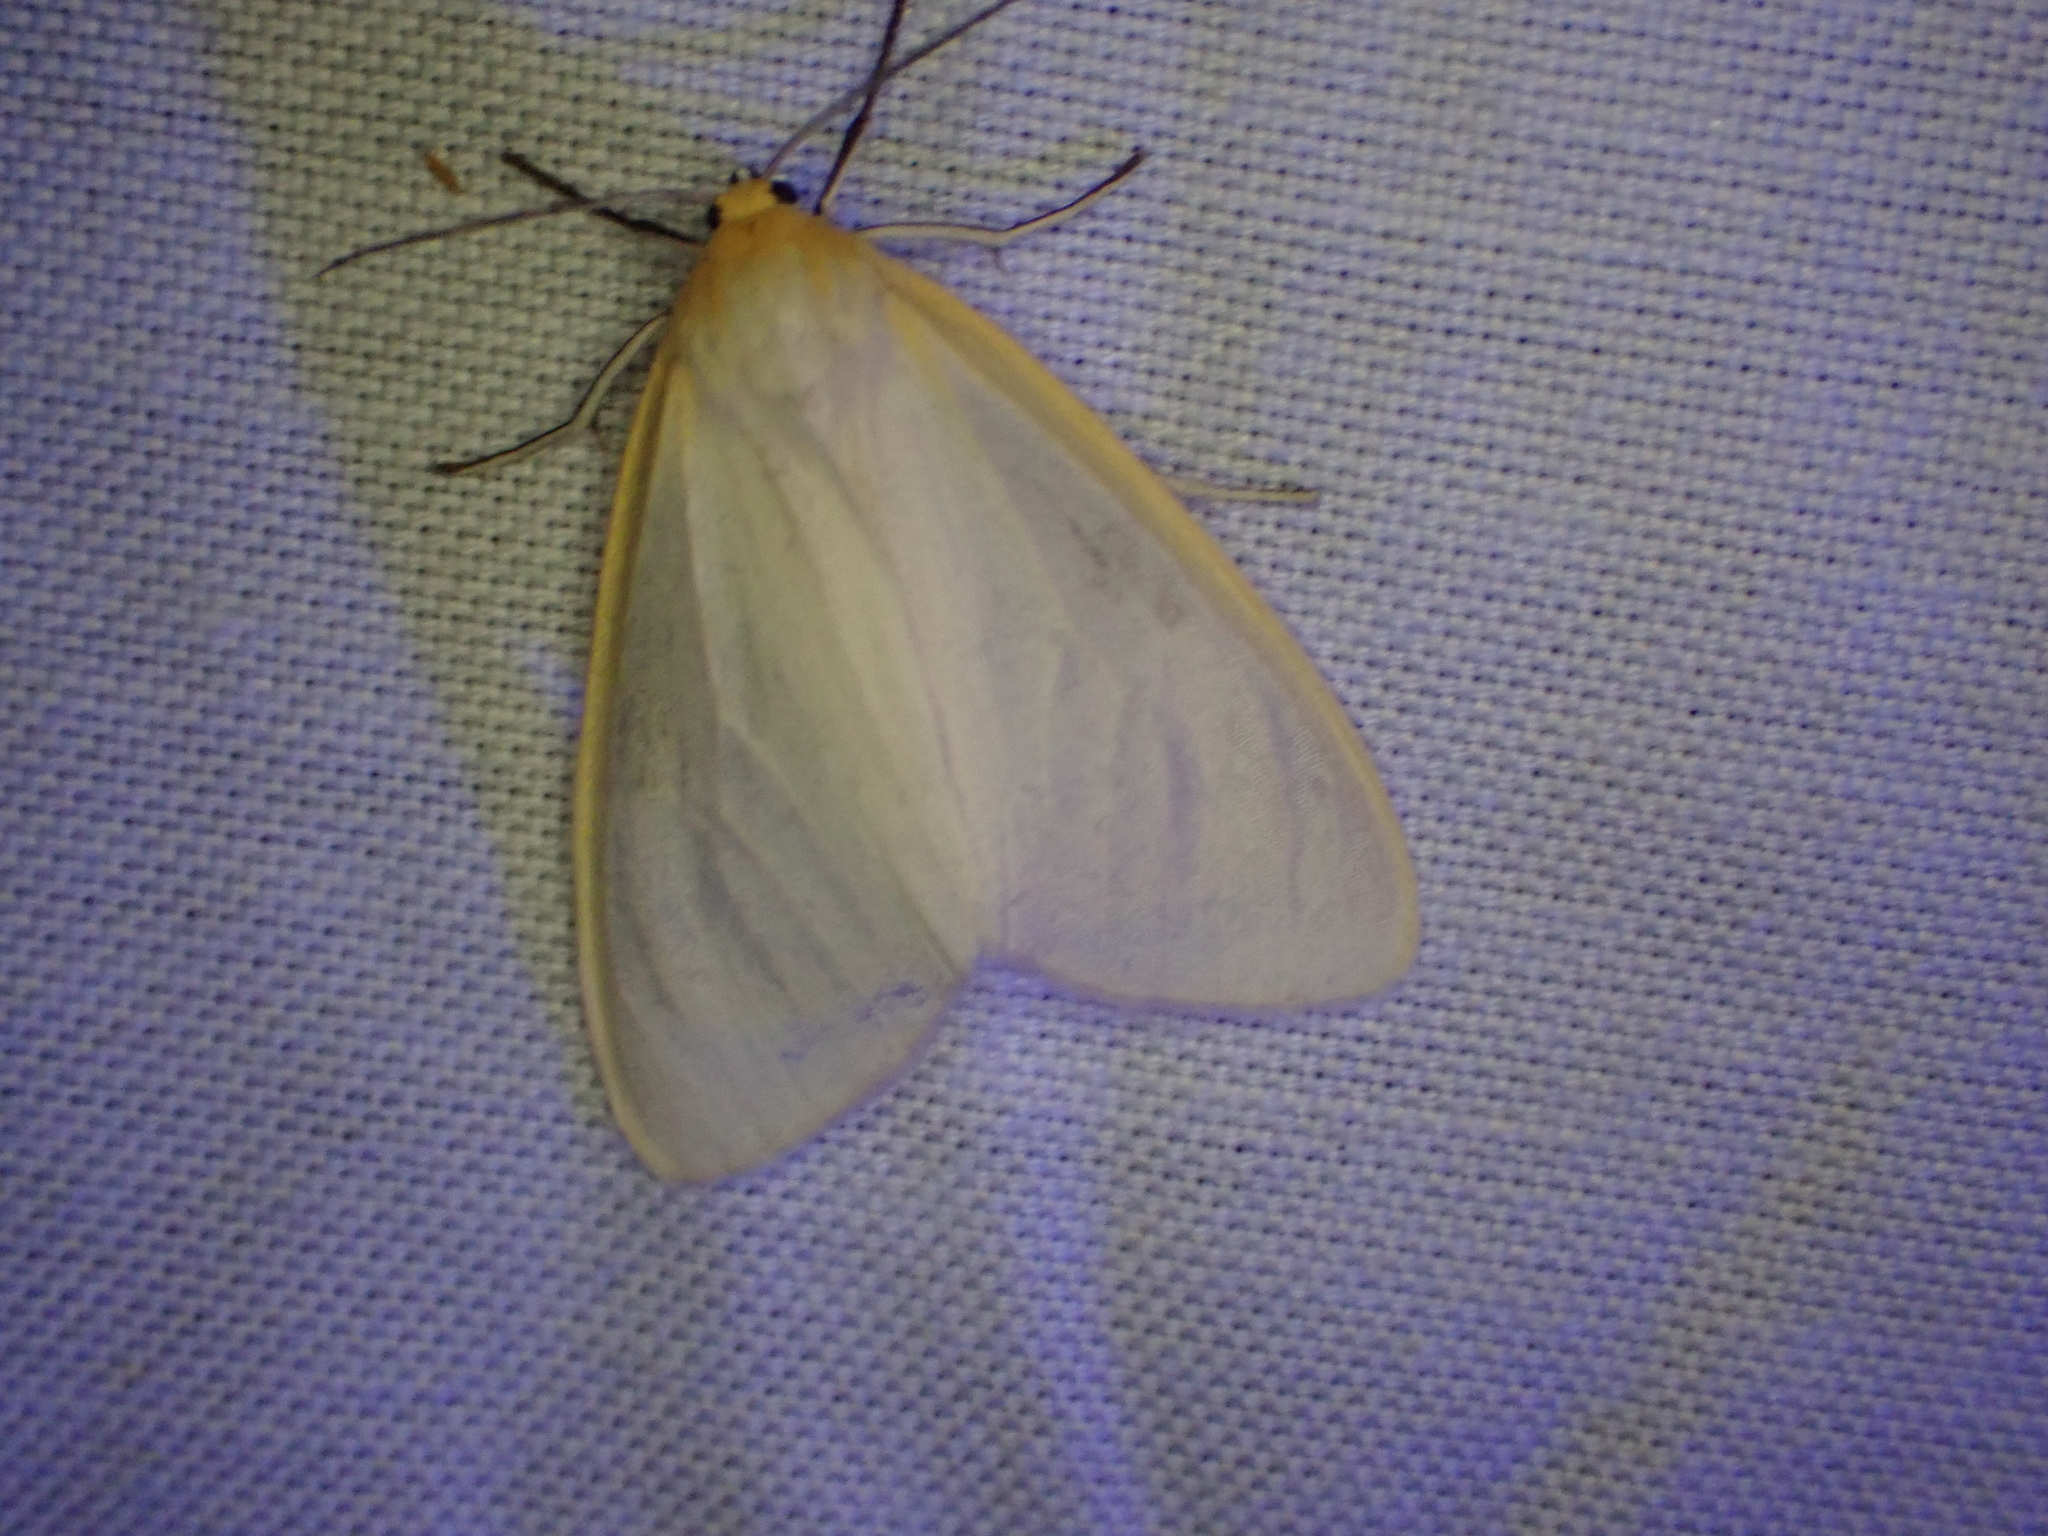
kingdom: Animalia
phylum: Arthropoda
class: Insecta
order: Lepidoptera
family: Erebidae
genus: Cycnia
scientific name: Cycnia tenera
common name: Delicate cycnia moth
